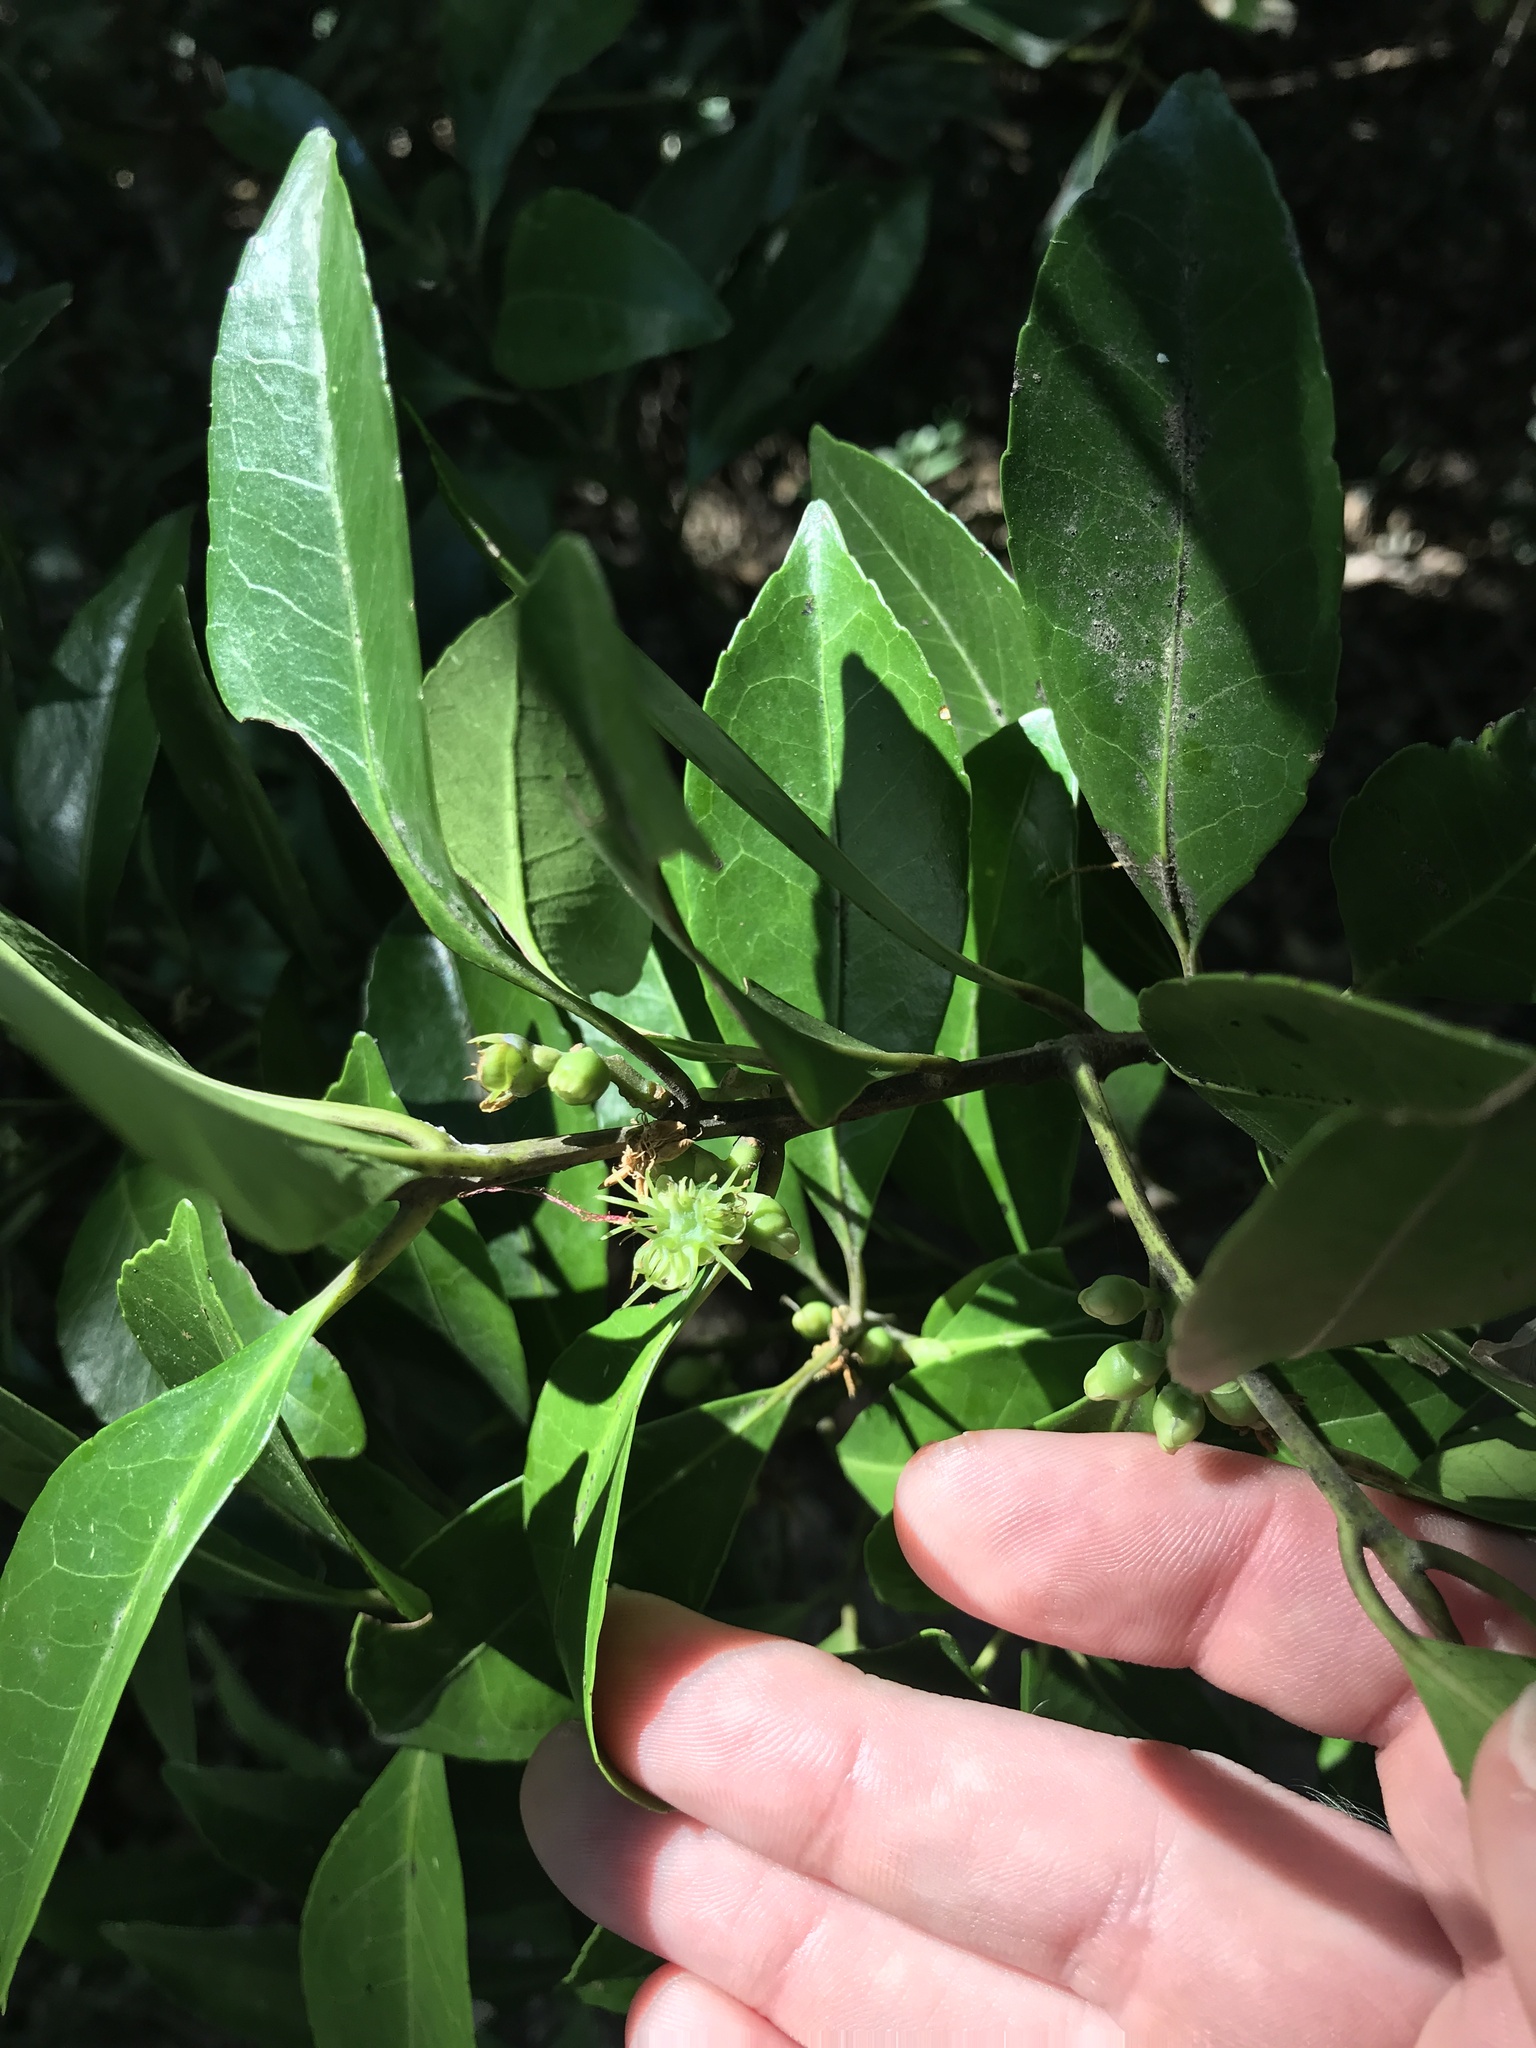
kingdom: Plantae
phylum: Tracheophyta
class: Magnoliopsida
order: Ericales
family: Symplocaceae
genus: Symplocos
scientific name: Symplocos nakaharae
